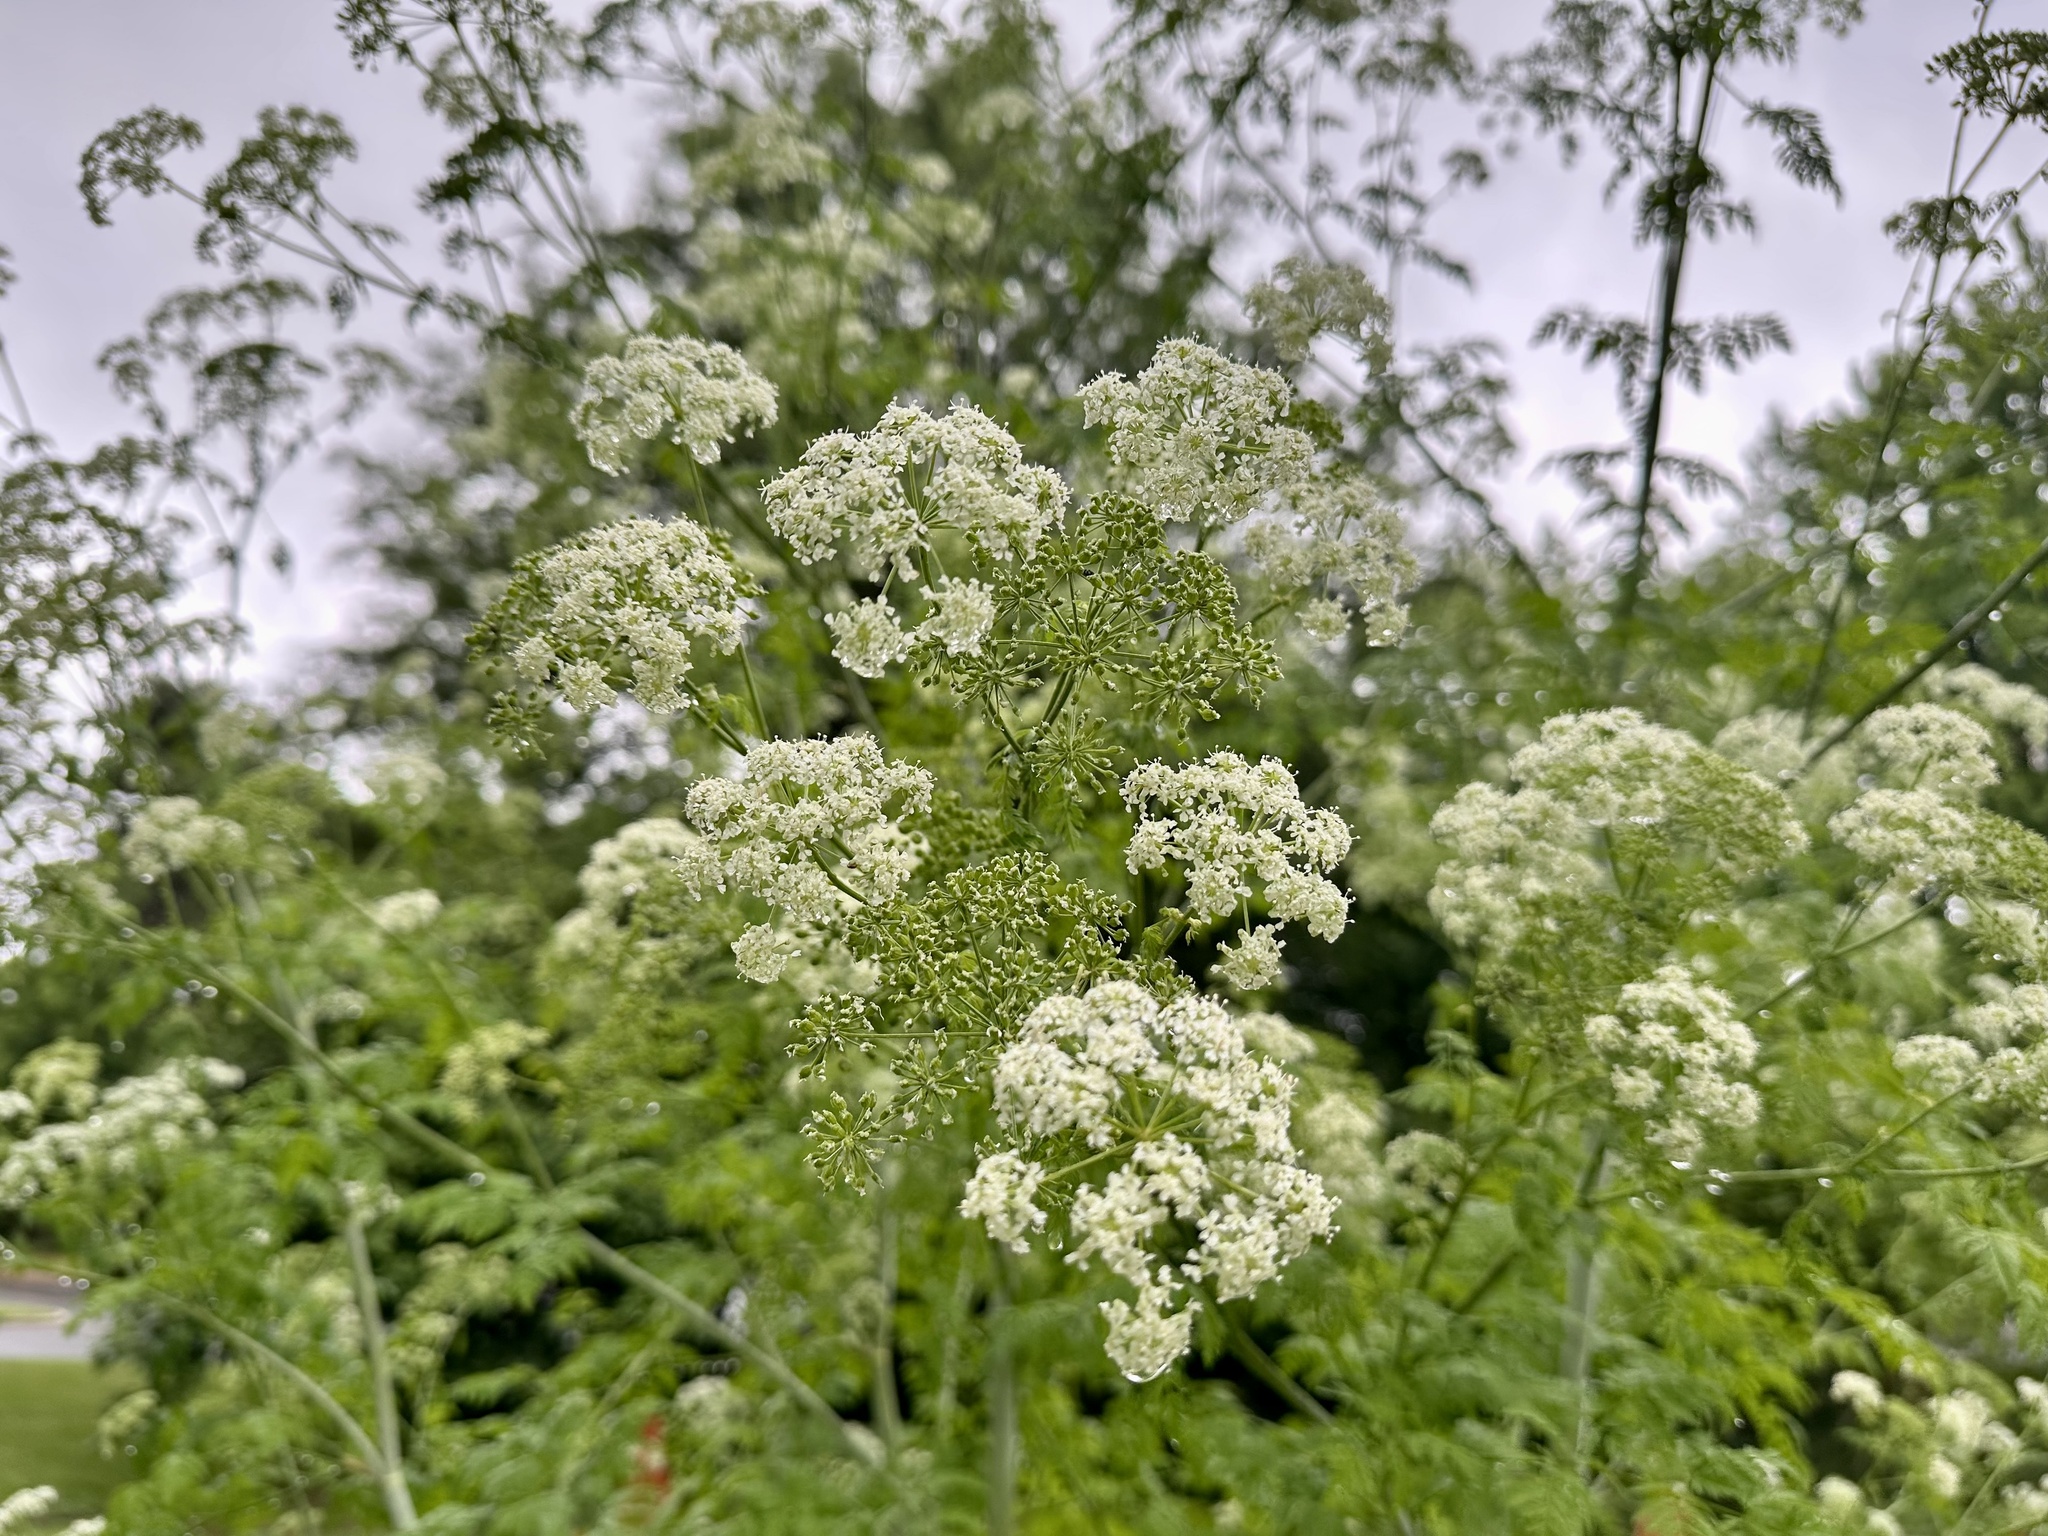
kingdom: Plantae
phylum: Tracheophyta
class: Magnoliopsida
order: Apiales
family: Apiaceae
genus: Conium
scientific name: Conium maculatum
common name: Hemlock
